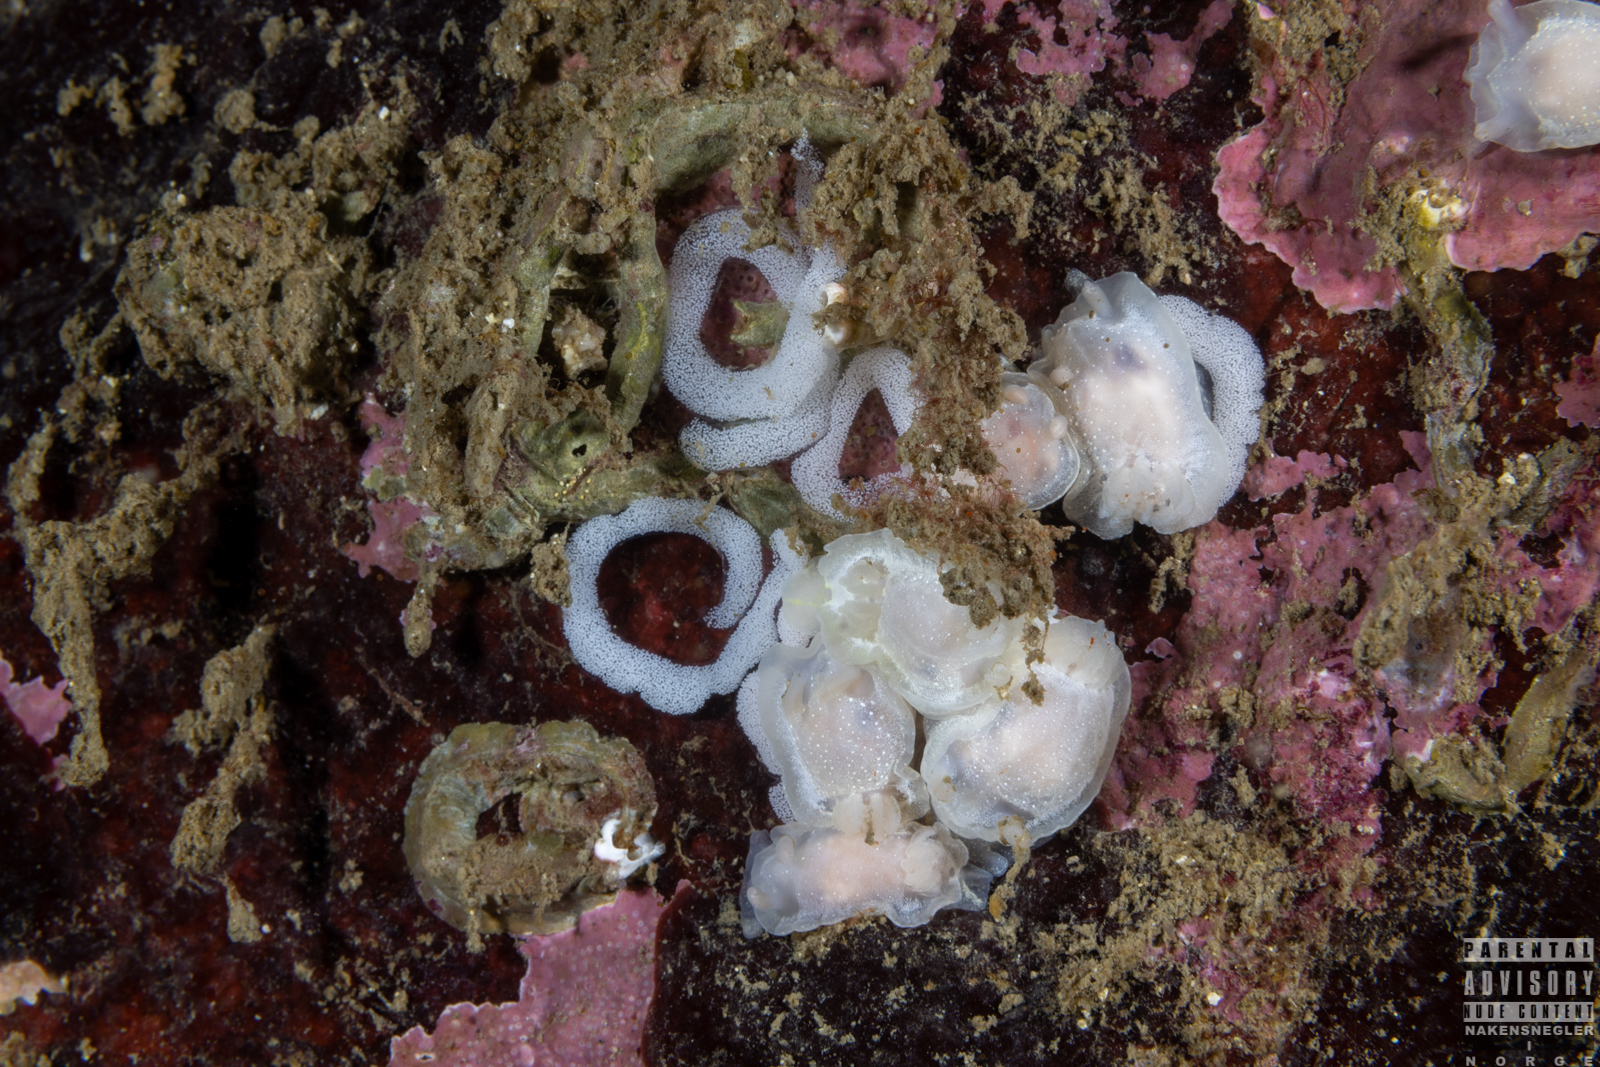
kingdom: Animalia
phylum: Mollusca
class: Gastropoda
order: Nudibranchia
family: Goniodorididae
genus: Okenia
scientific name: Okenia
